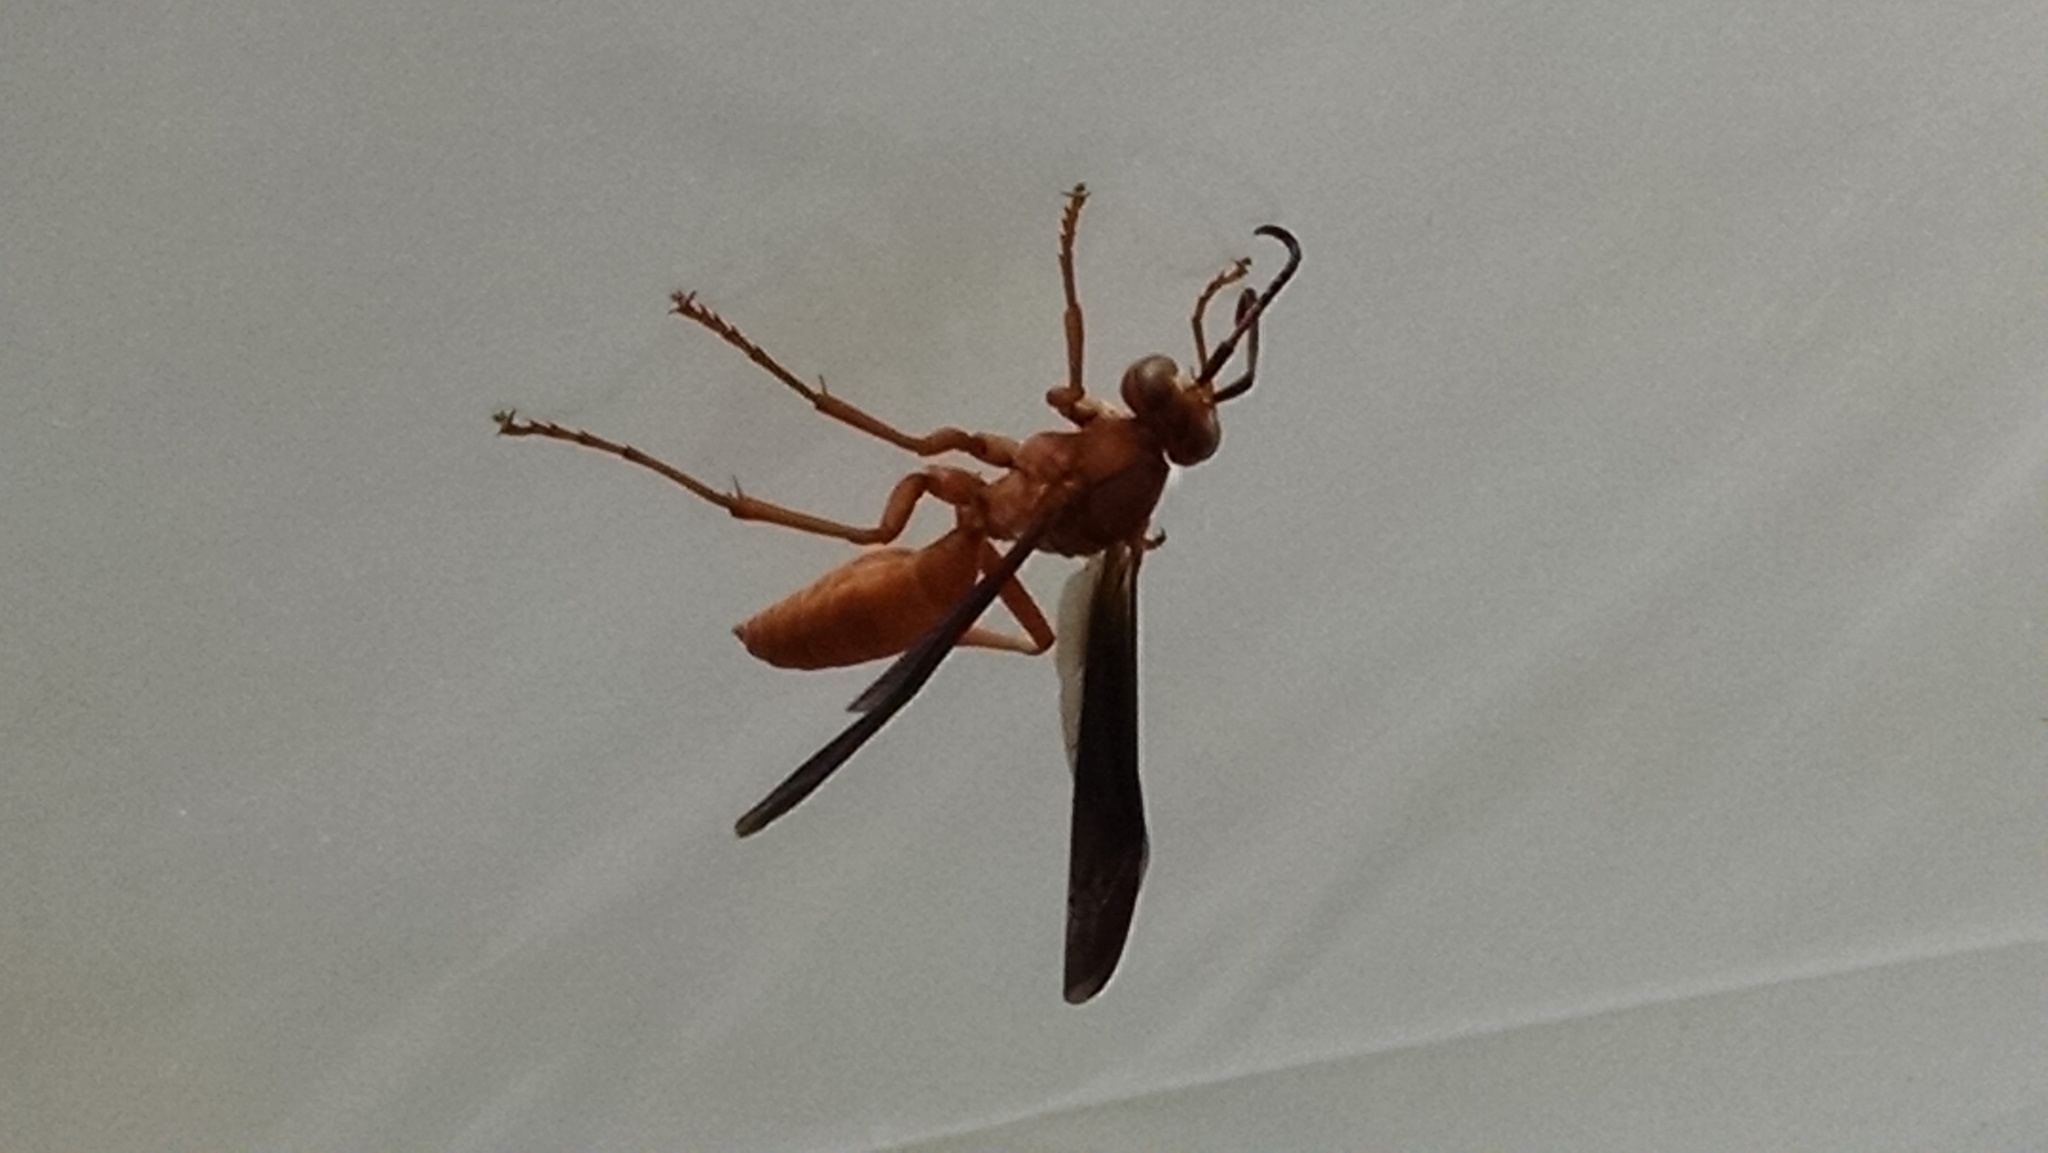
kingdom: Animalia
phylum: Arthropoda
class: Insecta
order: Hymenoptera
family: Vespidae
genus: Fuscopolistes
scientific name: Fuscopolistes
